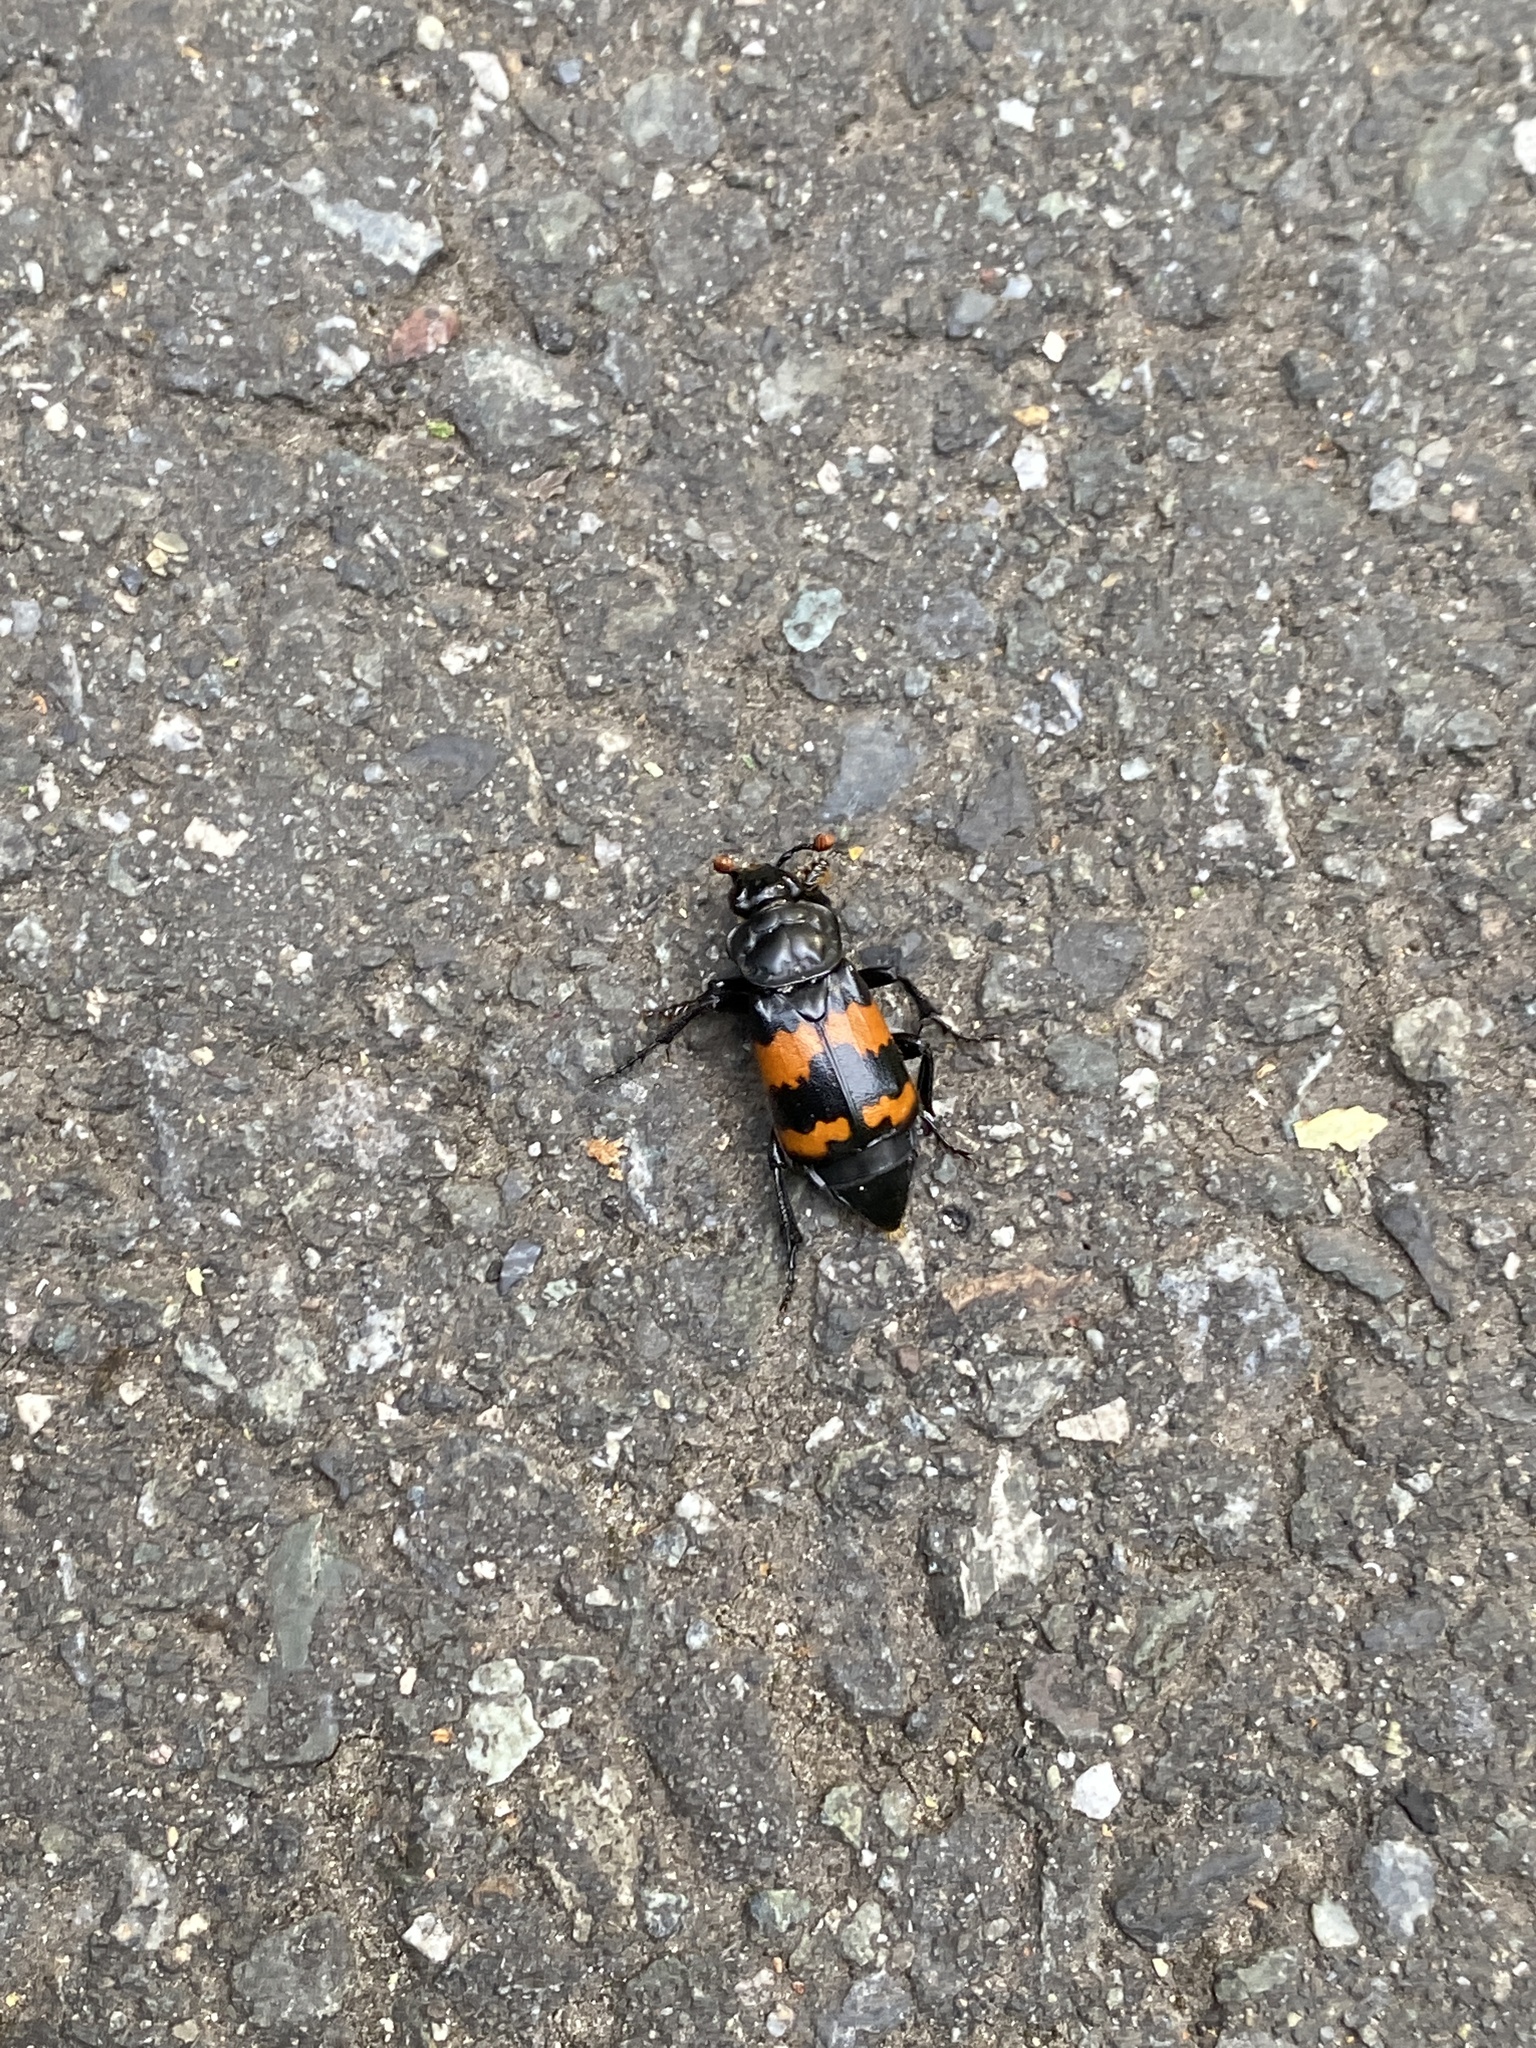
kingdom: Animalia
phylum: Arthropoda
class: Insecta
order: Coleoptera
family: Staphylinidae
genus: Nicrophorus
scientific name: Nicrophorus investigator
